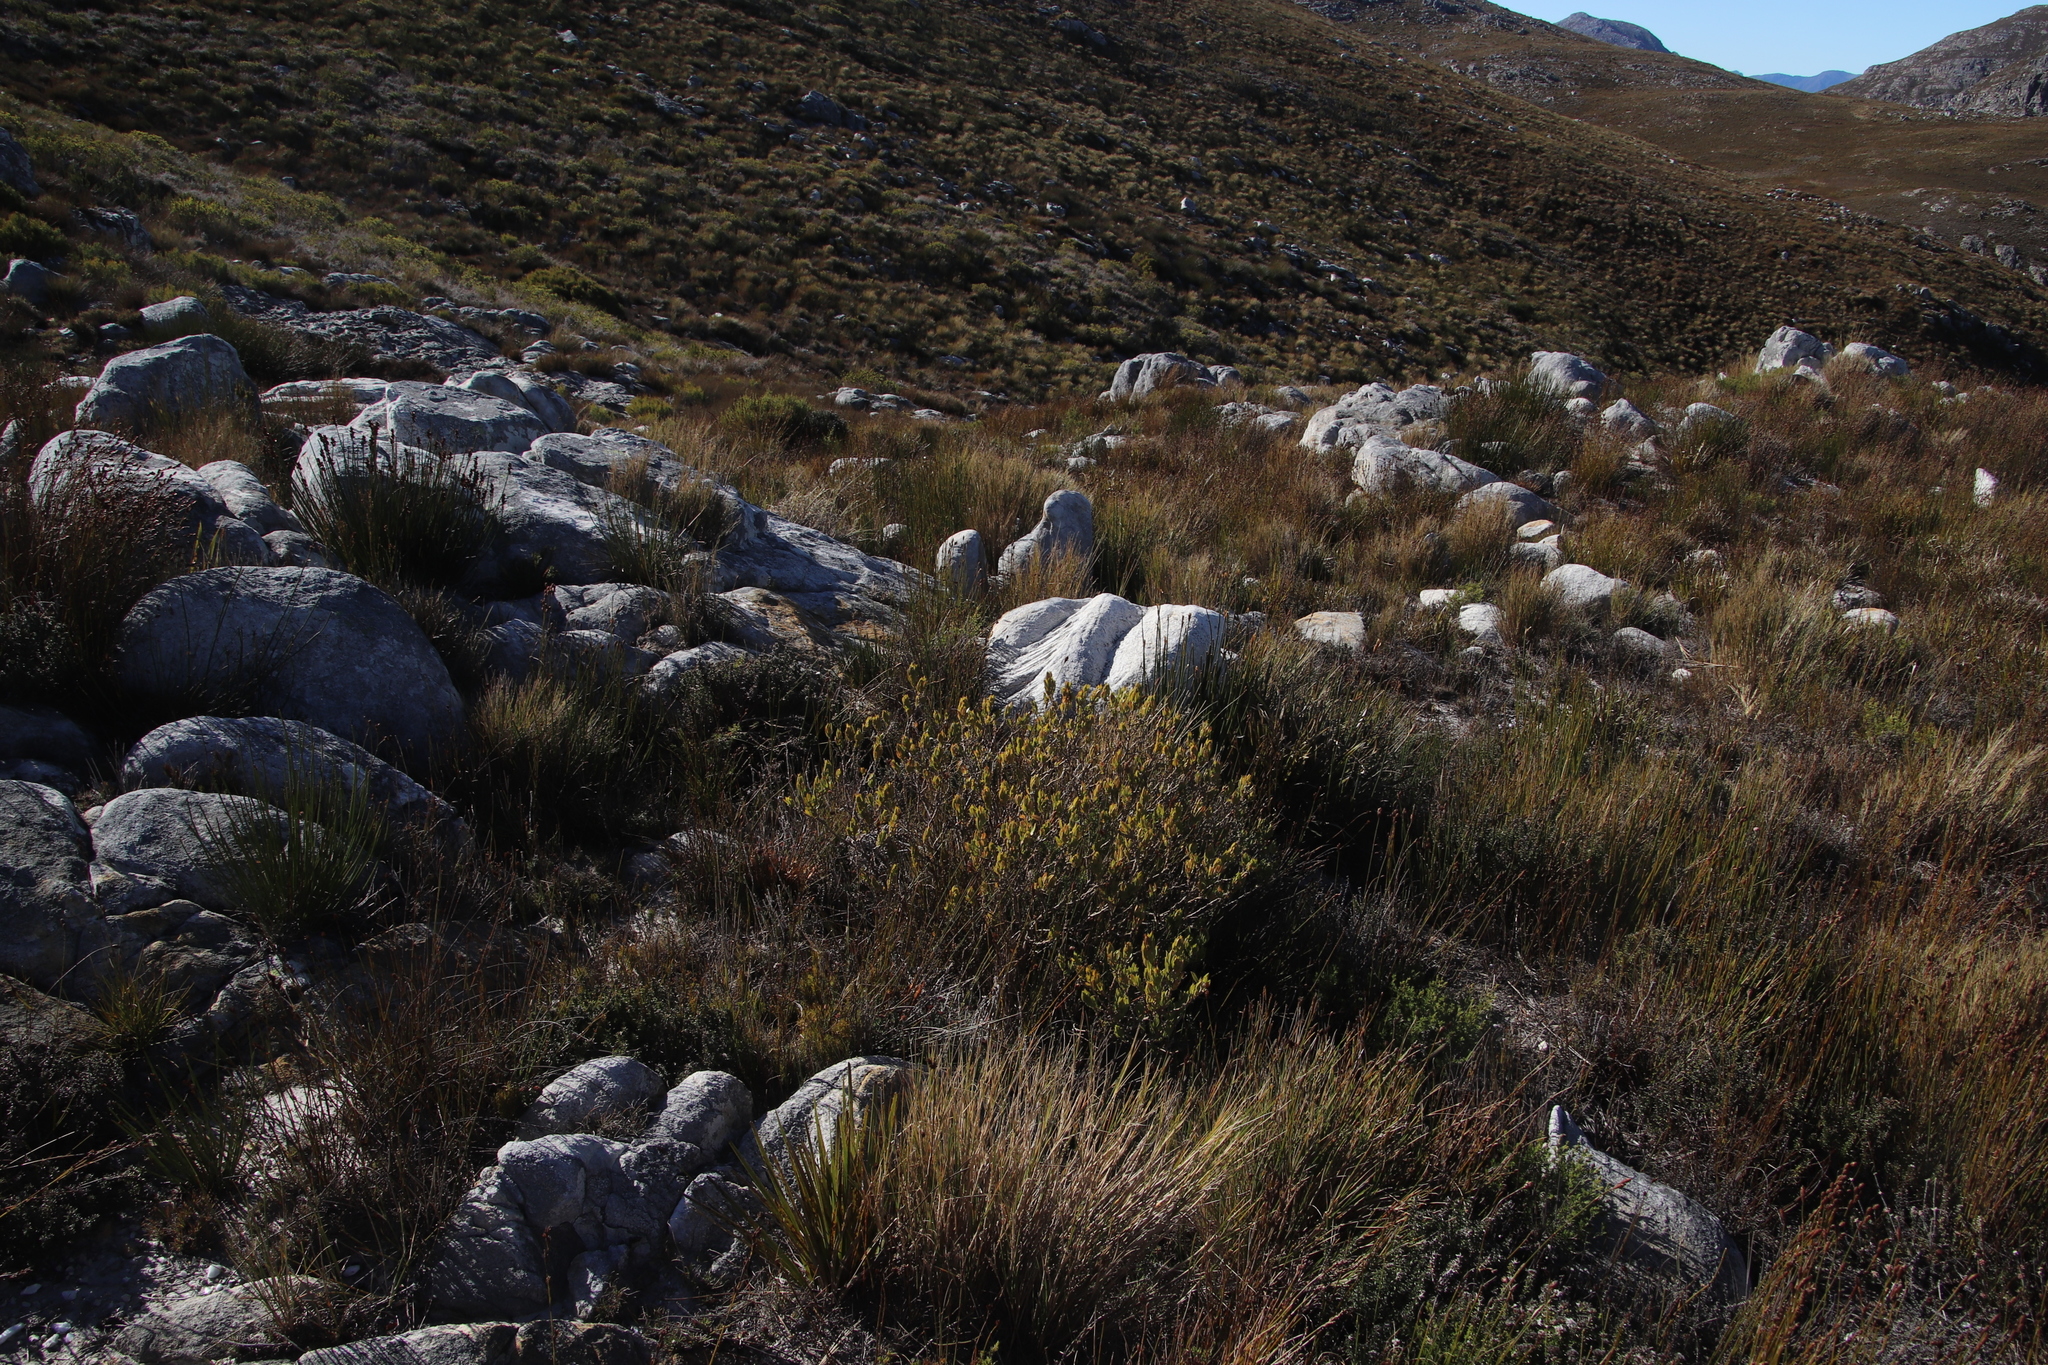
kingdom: Plantae
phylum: Tracheophyta
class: Magnoliopsida
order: Fabales
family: Fabaceae
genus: Psoralea
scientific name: Psoralea mundiana
